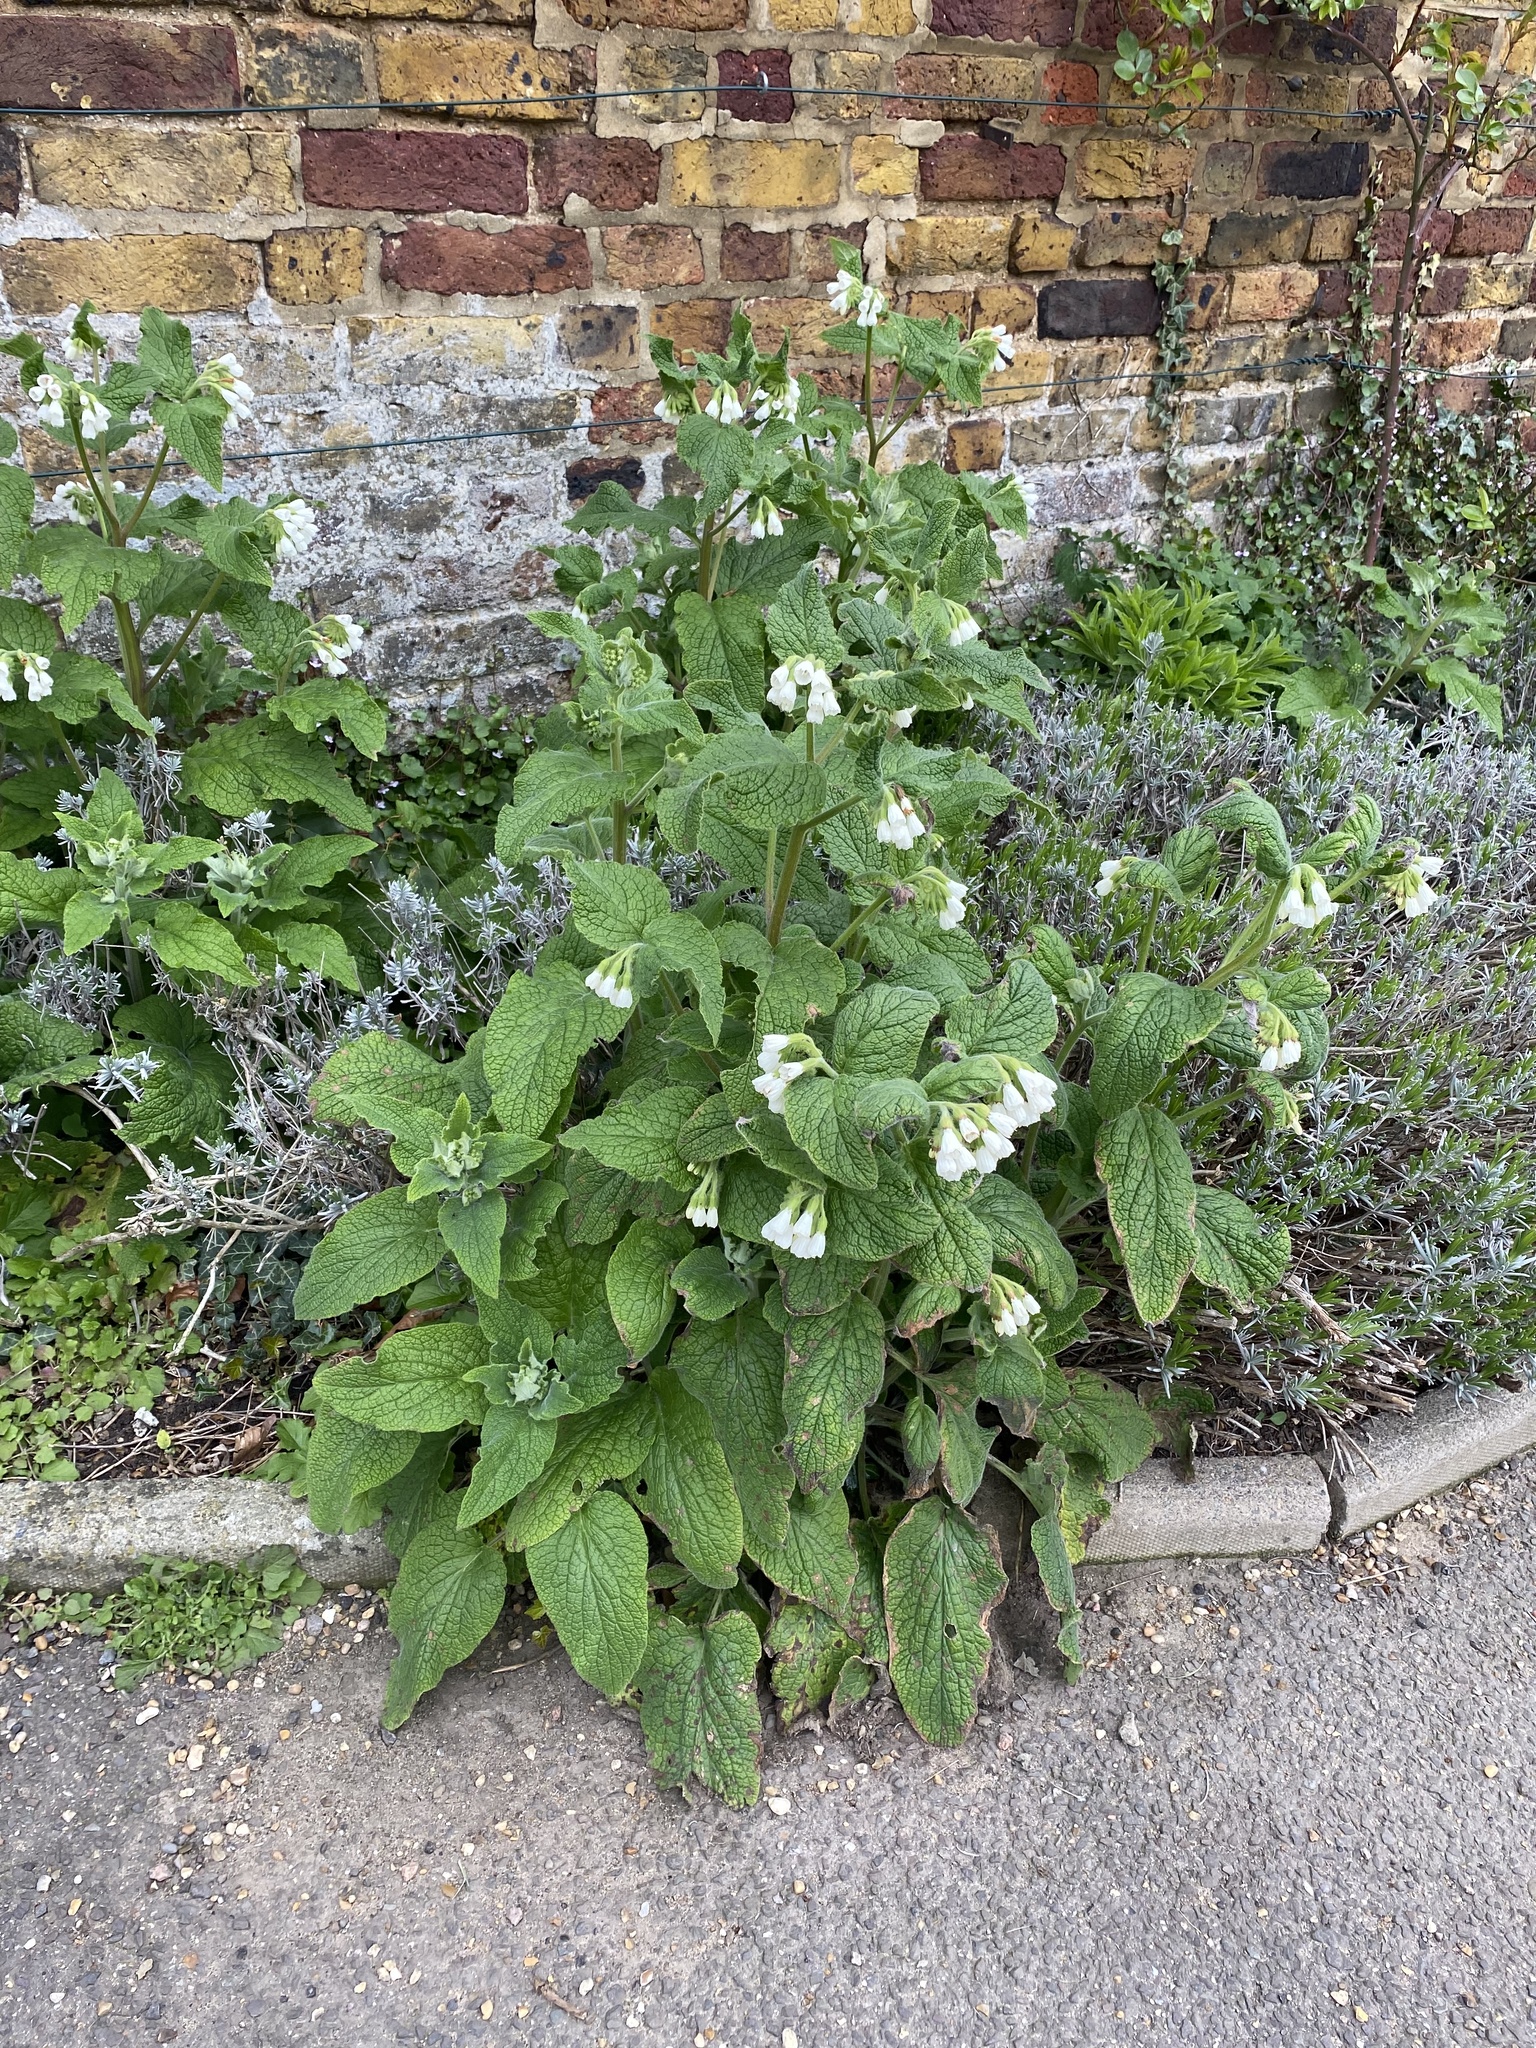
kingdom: Plantae
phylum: Tracheophyta
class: Magnoliopsida
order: Boraginales
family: Boraginaceae
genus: Symphytum
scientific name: Symphytum orientale
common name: White comfrey
